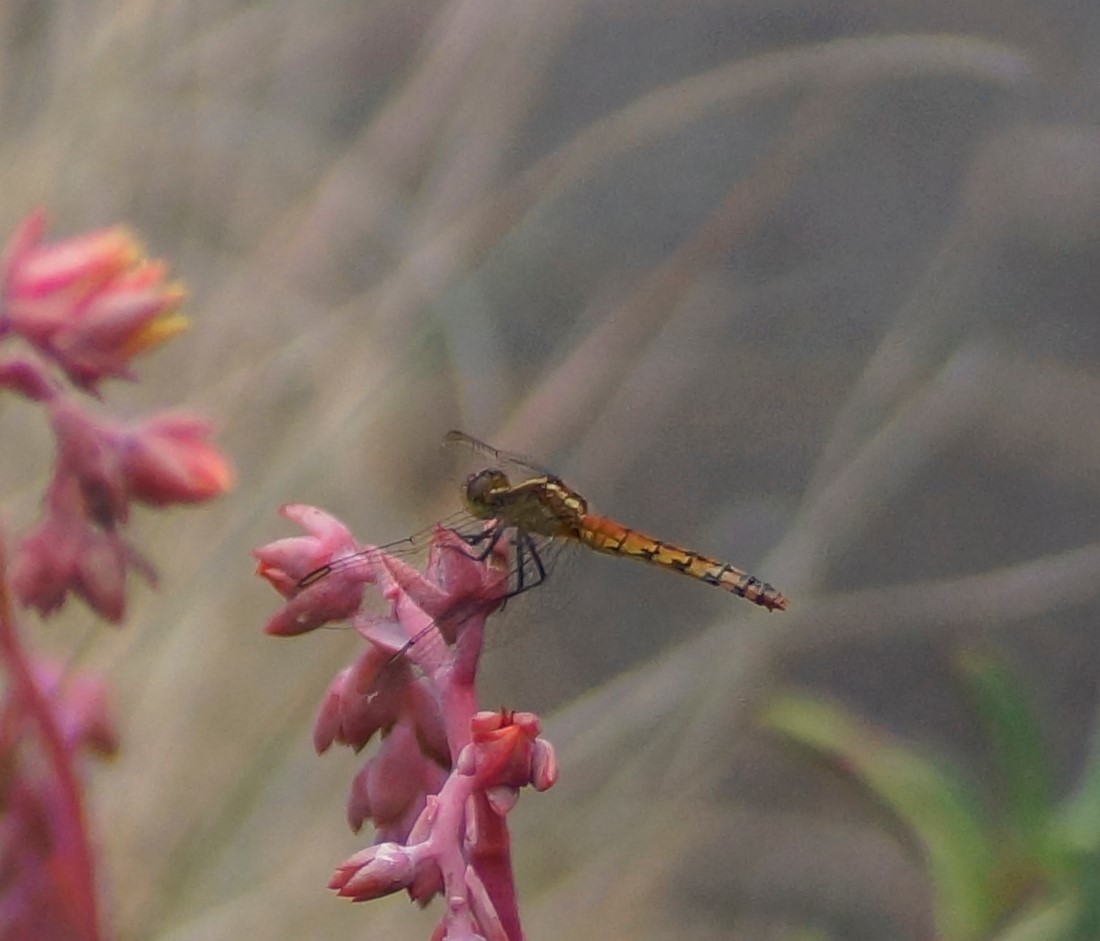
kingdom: Animalia
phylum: Arthropoda
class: Insecta
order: Odonata
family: Libellulidae
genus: Diplacodes
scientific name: Diplacodes melanopsis
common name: Black-faced percher
